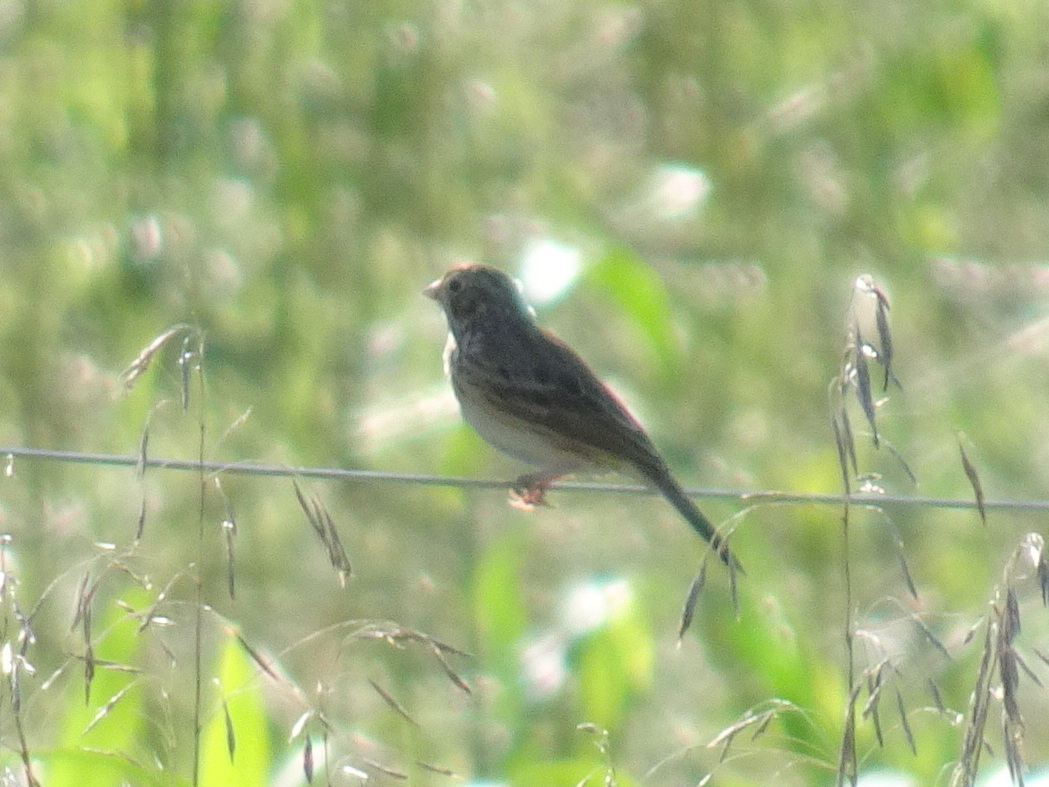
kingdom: Animalia
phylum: Chordata
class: Aves
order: Passeriformes
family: Passerellidae
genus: Pooecetes
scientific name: Pooecetes gramineus
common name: Vesper sparrow
